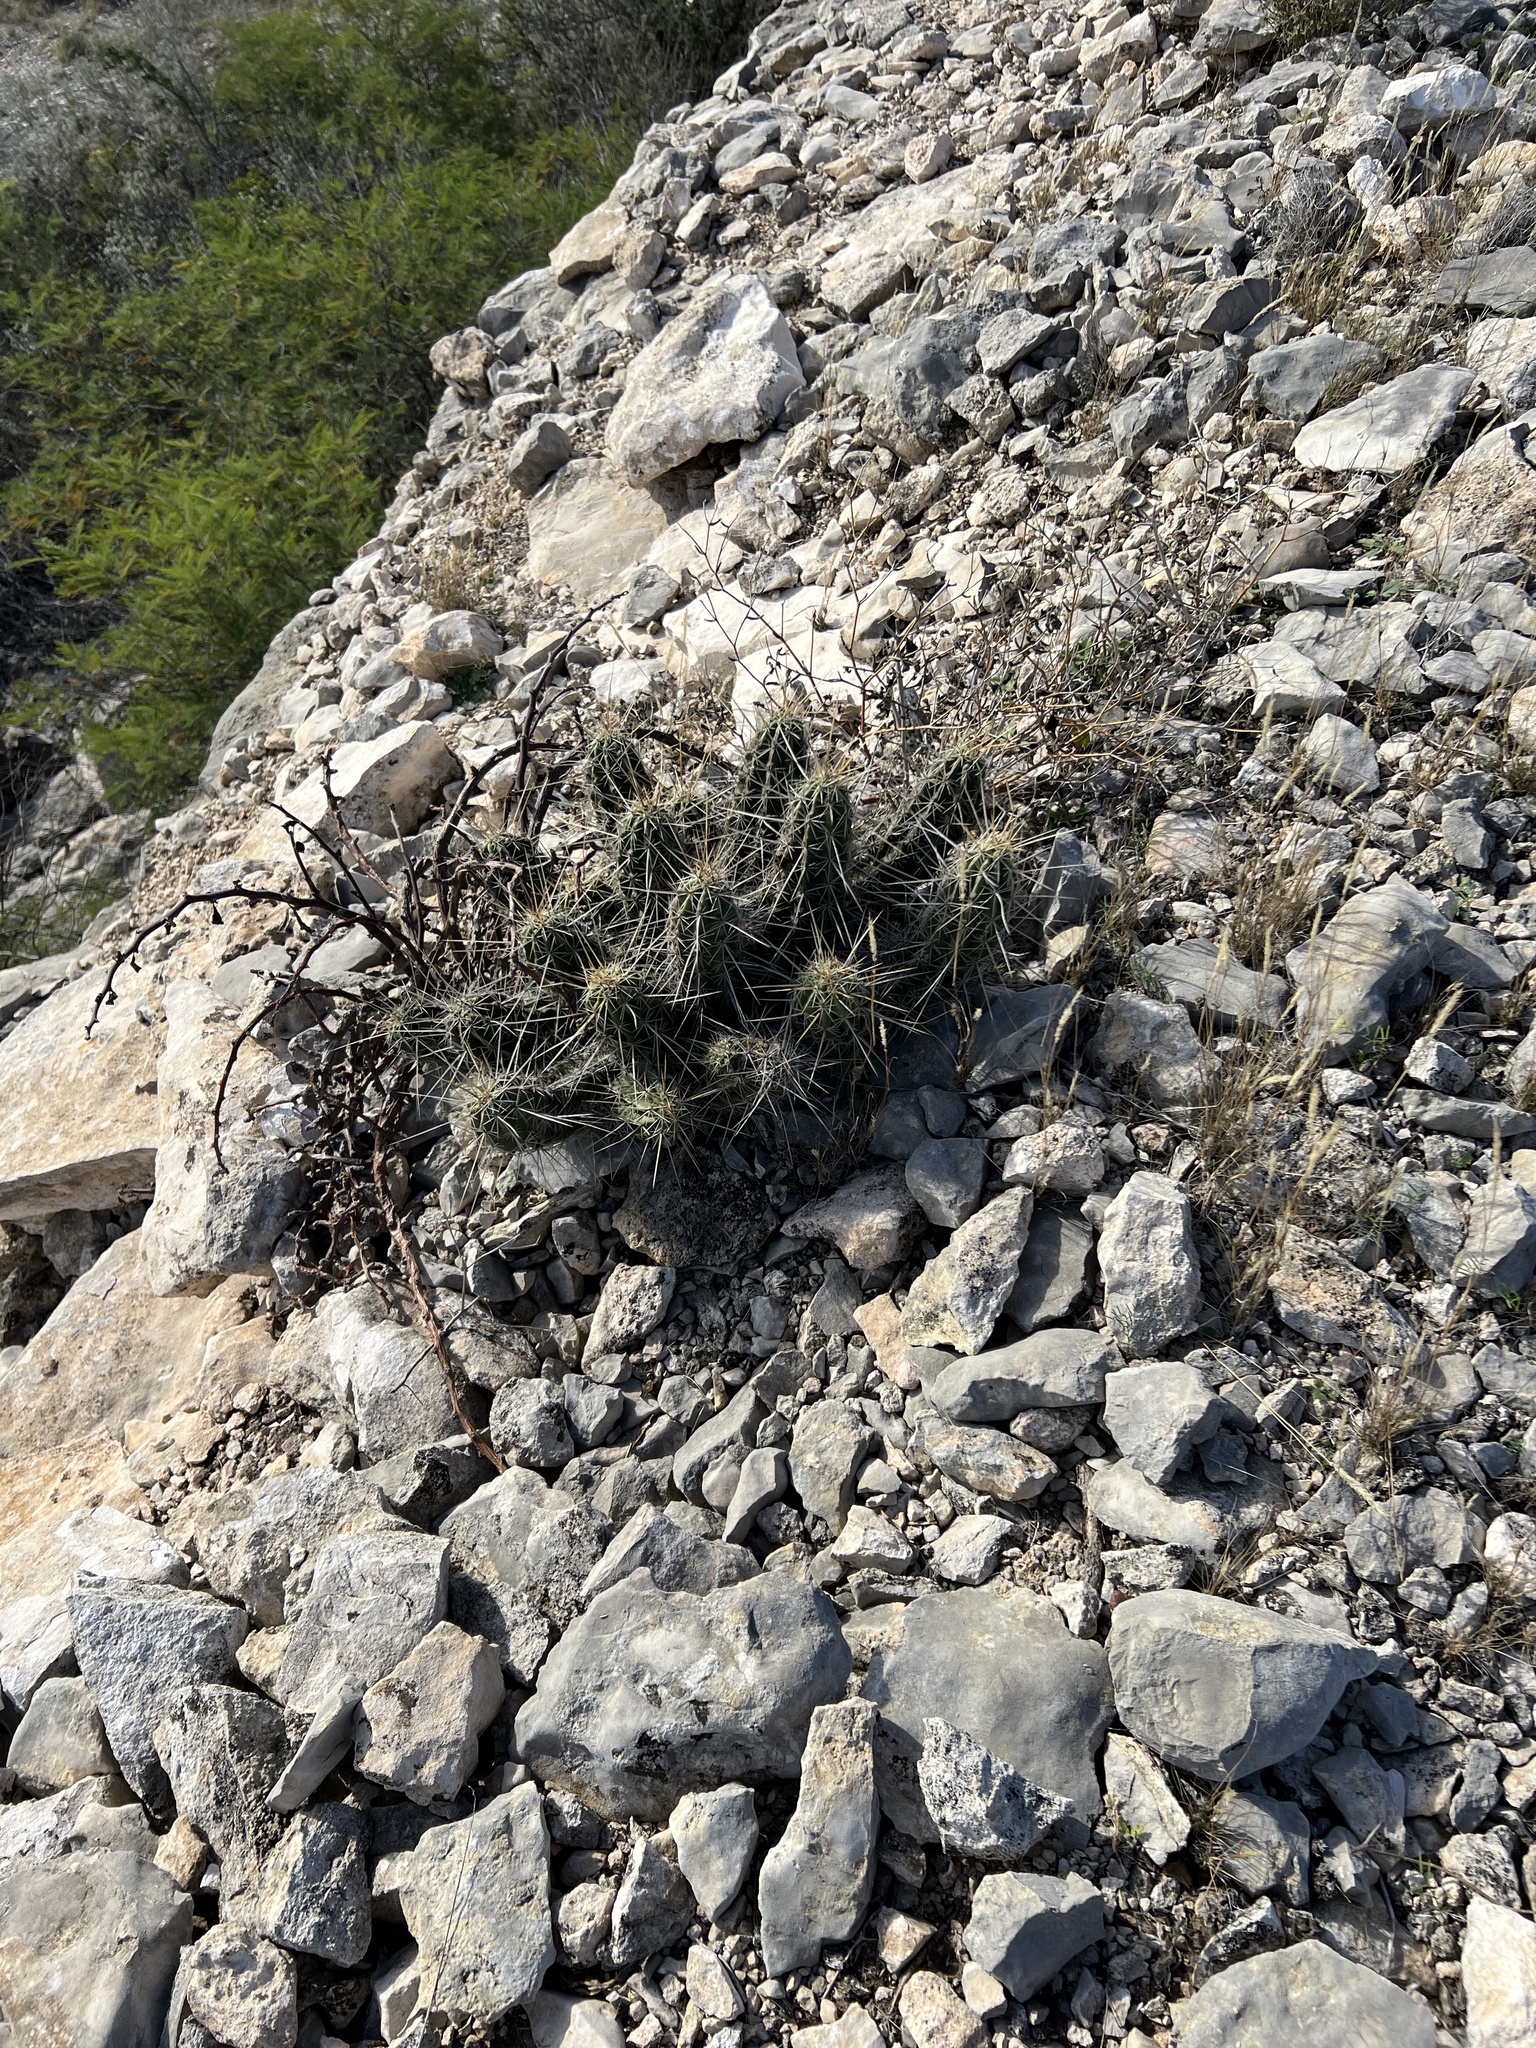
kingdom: Plantae
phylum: Tracheophyta
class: Magnoliopsida
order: Caryophyllales
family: Cactaceae
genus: Echinocereus
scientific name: Echinocereus enneacanthus
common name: Pitaya
